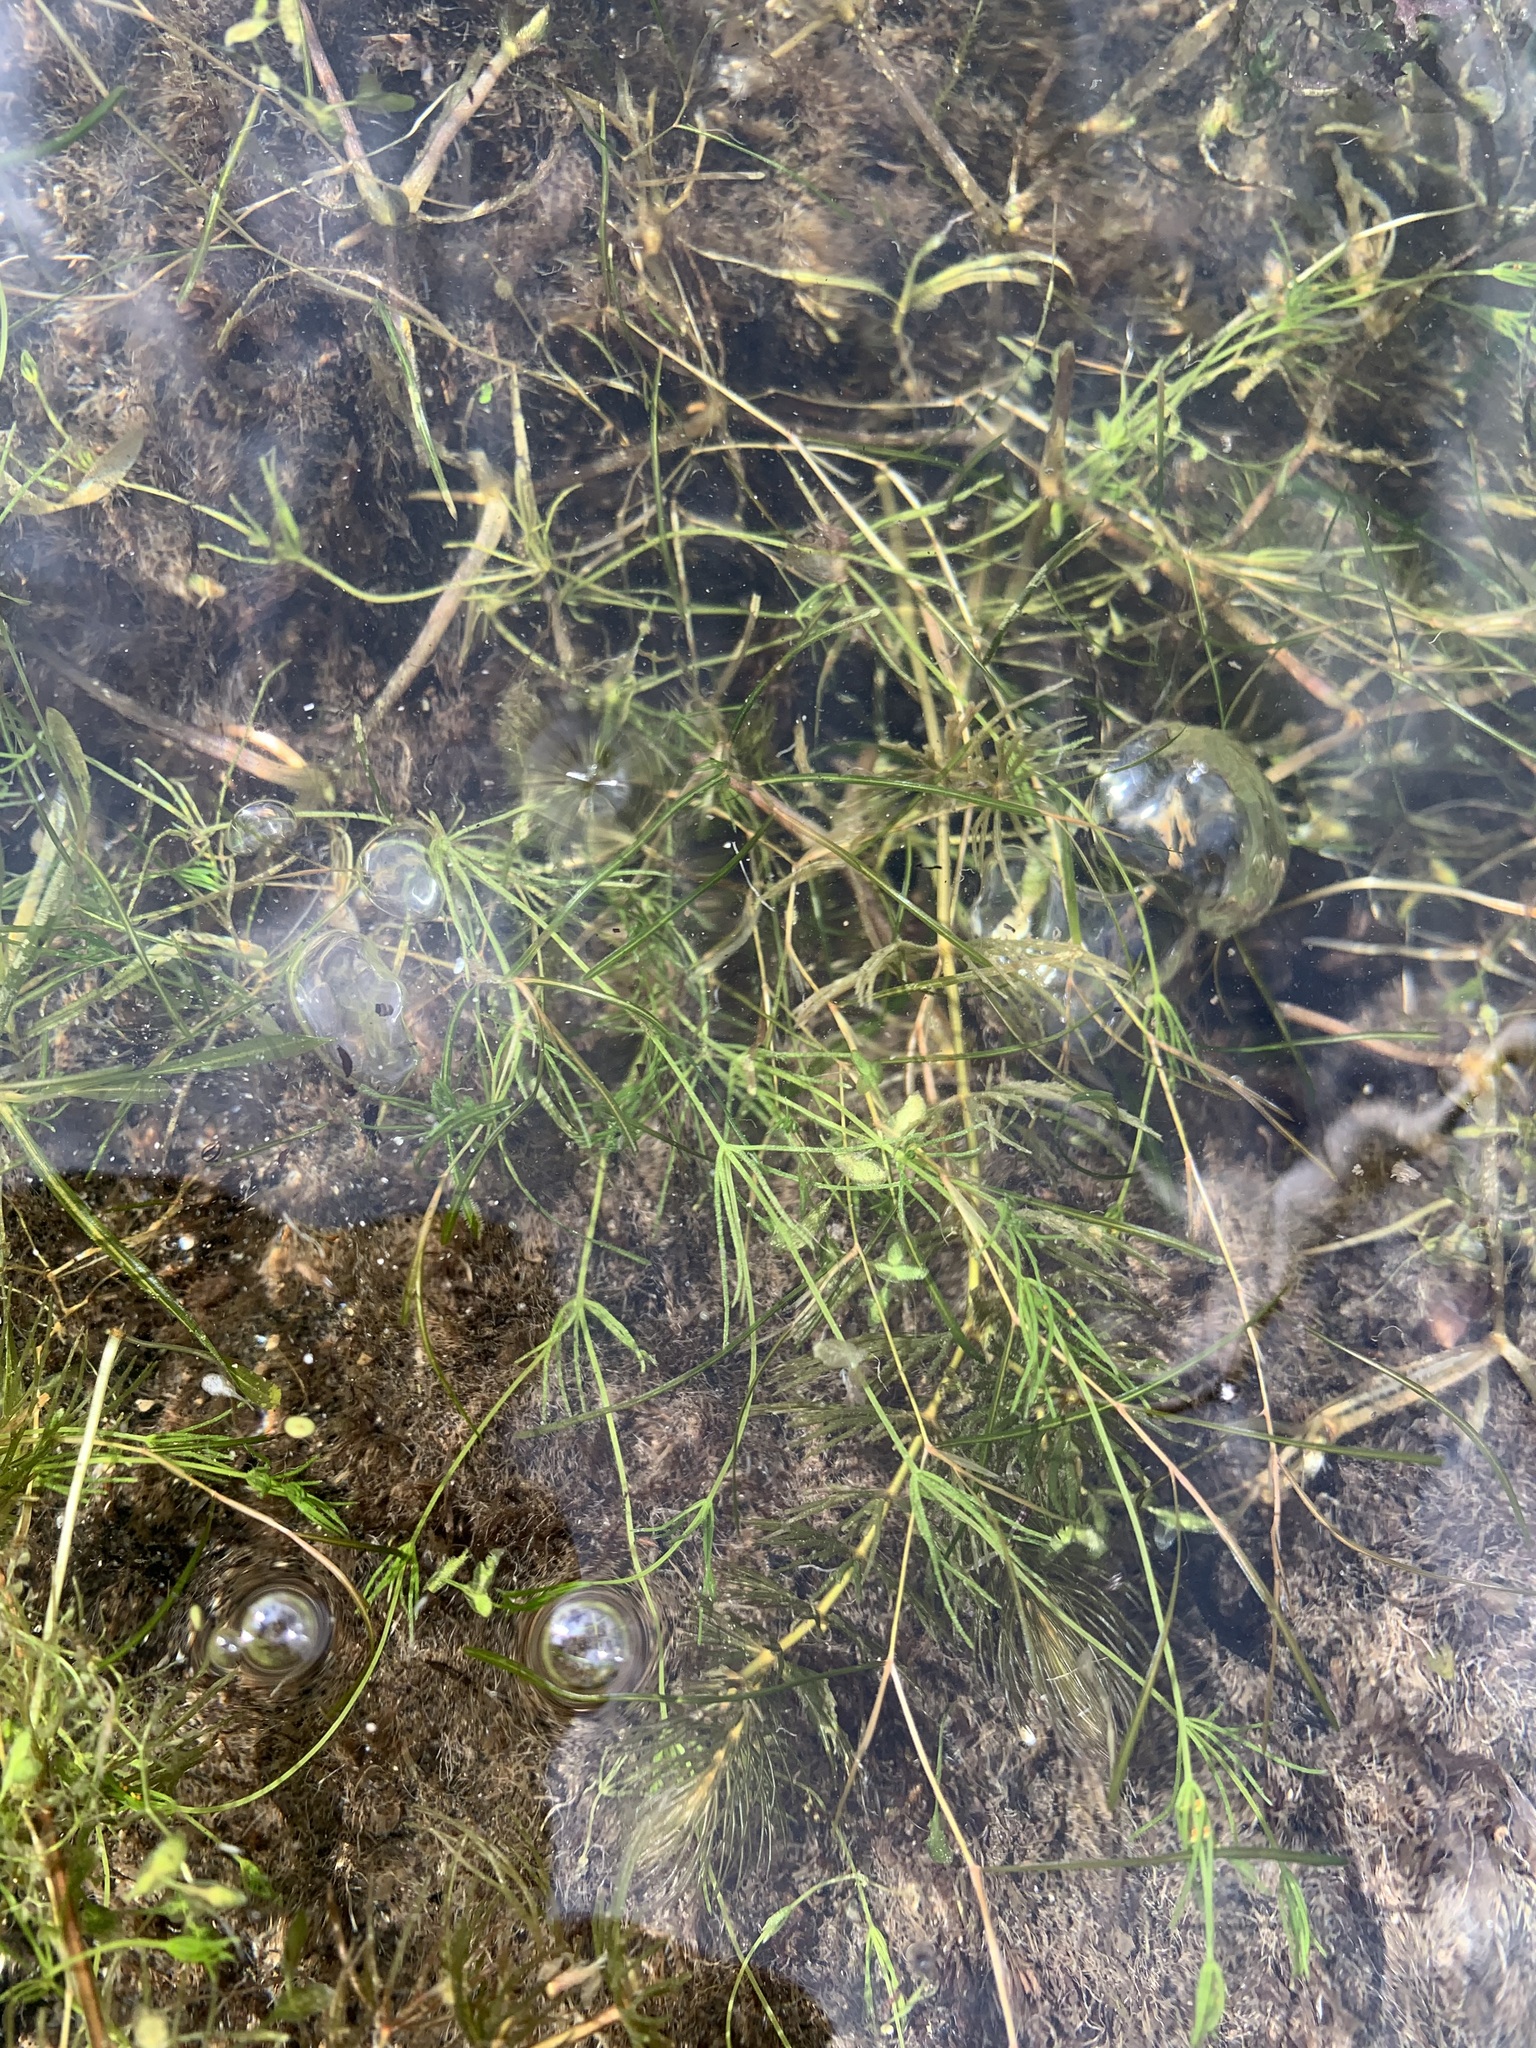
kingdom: Plantae
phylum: Charophyta
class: Charophyceae
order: Charales
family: Characeae
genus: Chara
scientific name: Chara globularis
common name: Fragile stonewort
